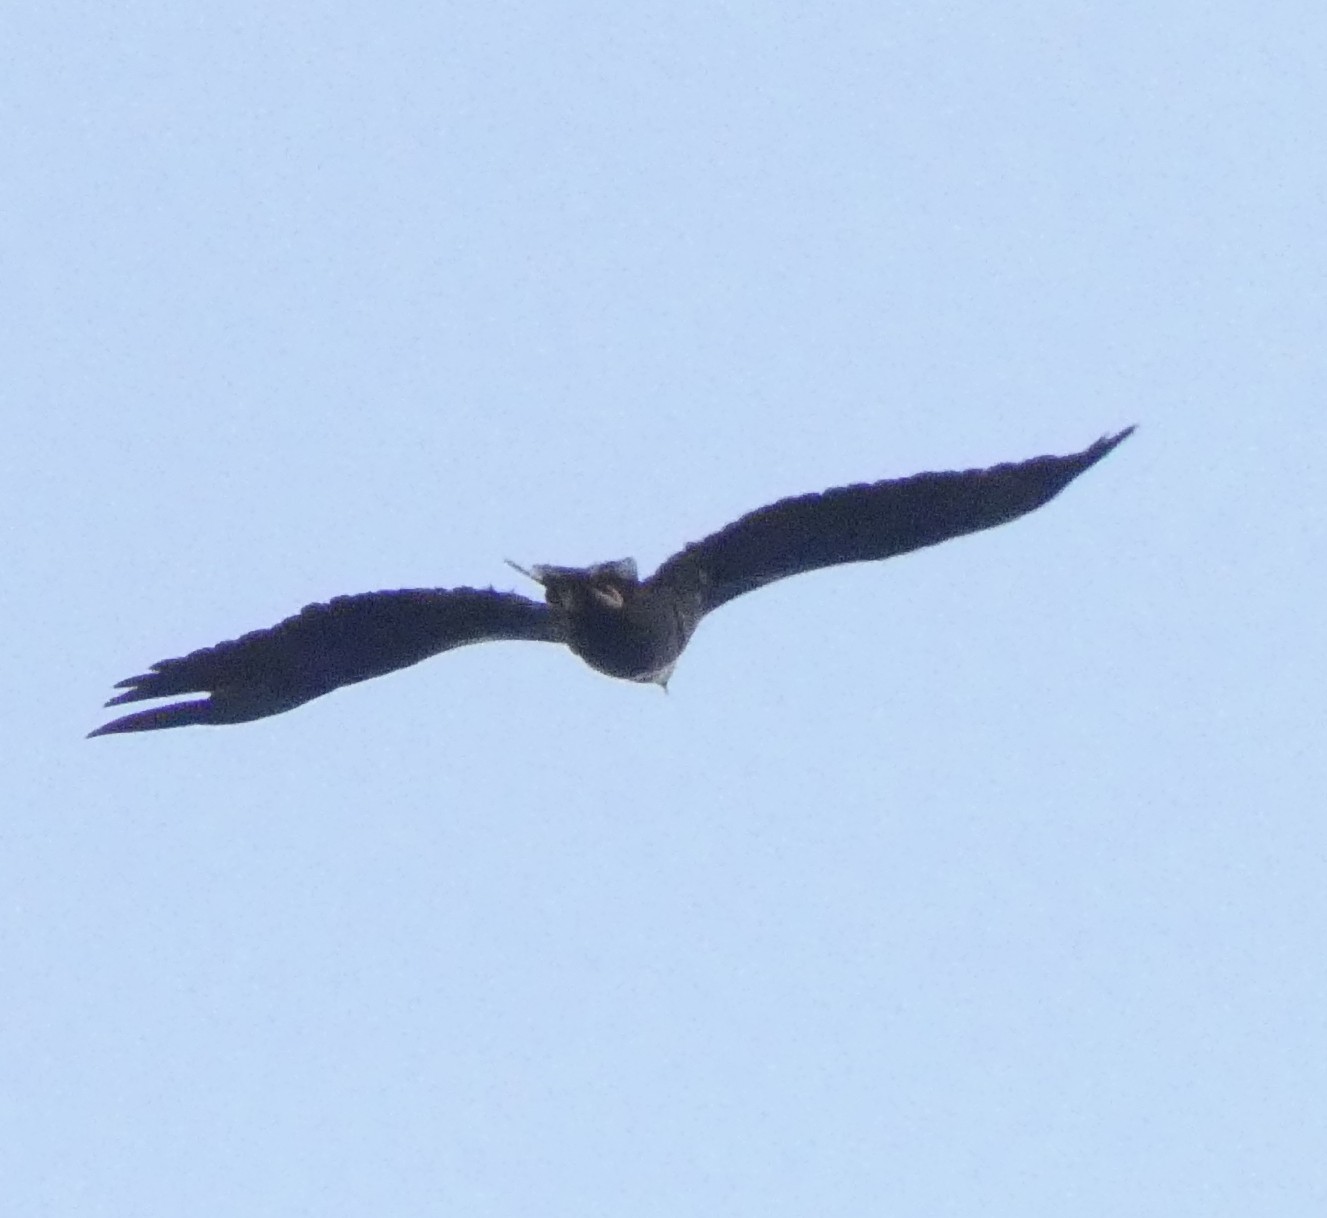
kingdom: Animalia
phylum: Chordata
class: Aves
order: Accipitriformes
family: Accipitridae
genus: Haliaeetus
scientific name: Haliaeetus albicilla
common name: White-tailed eagle
